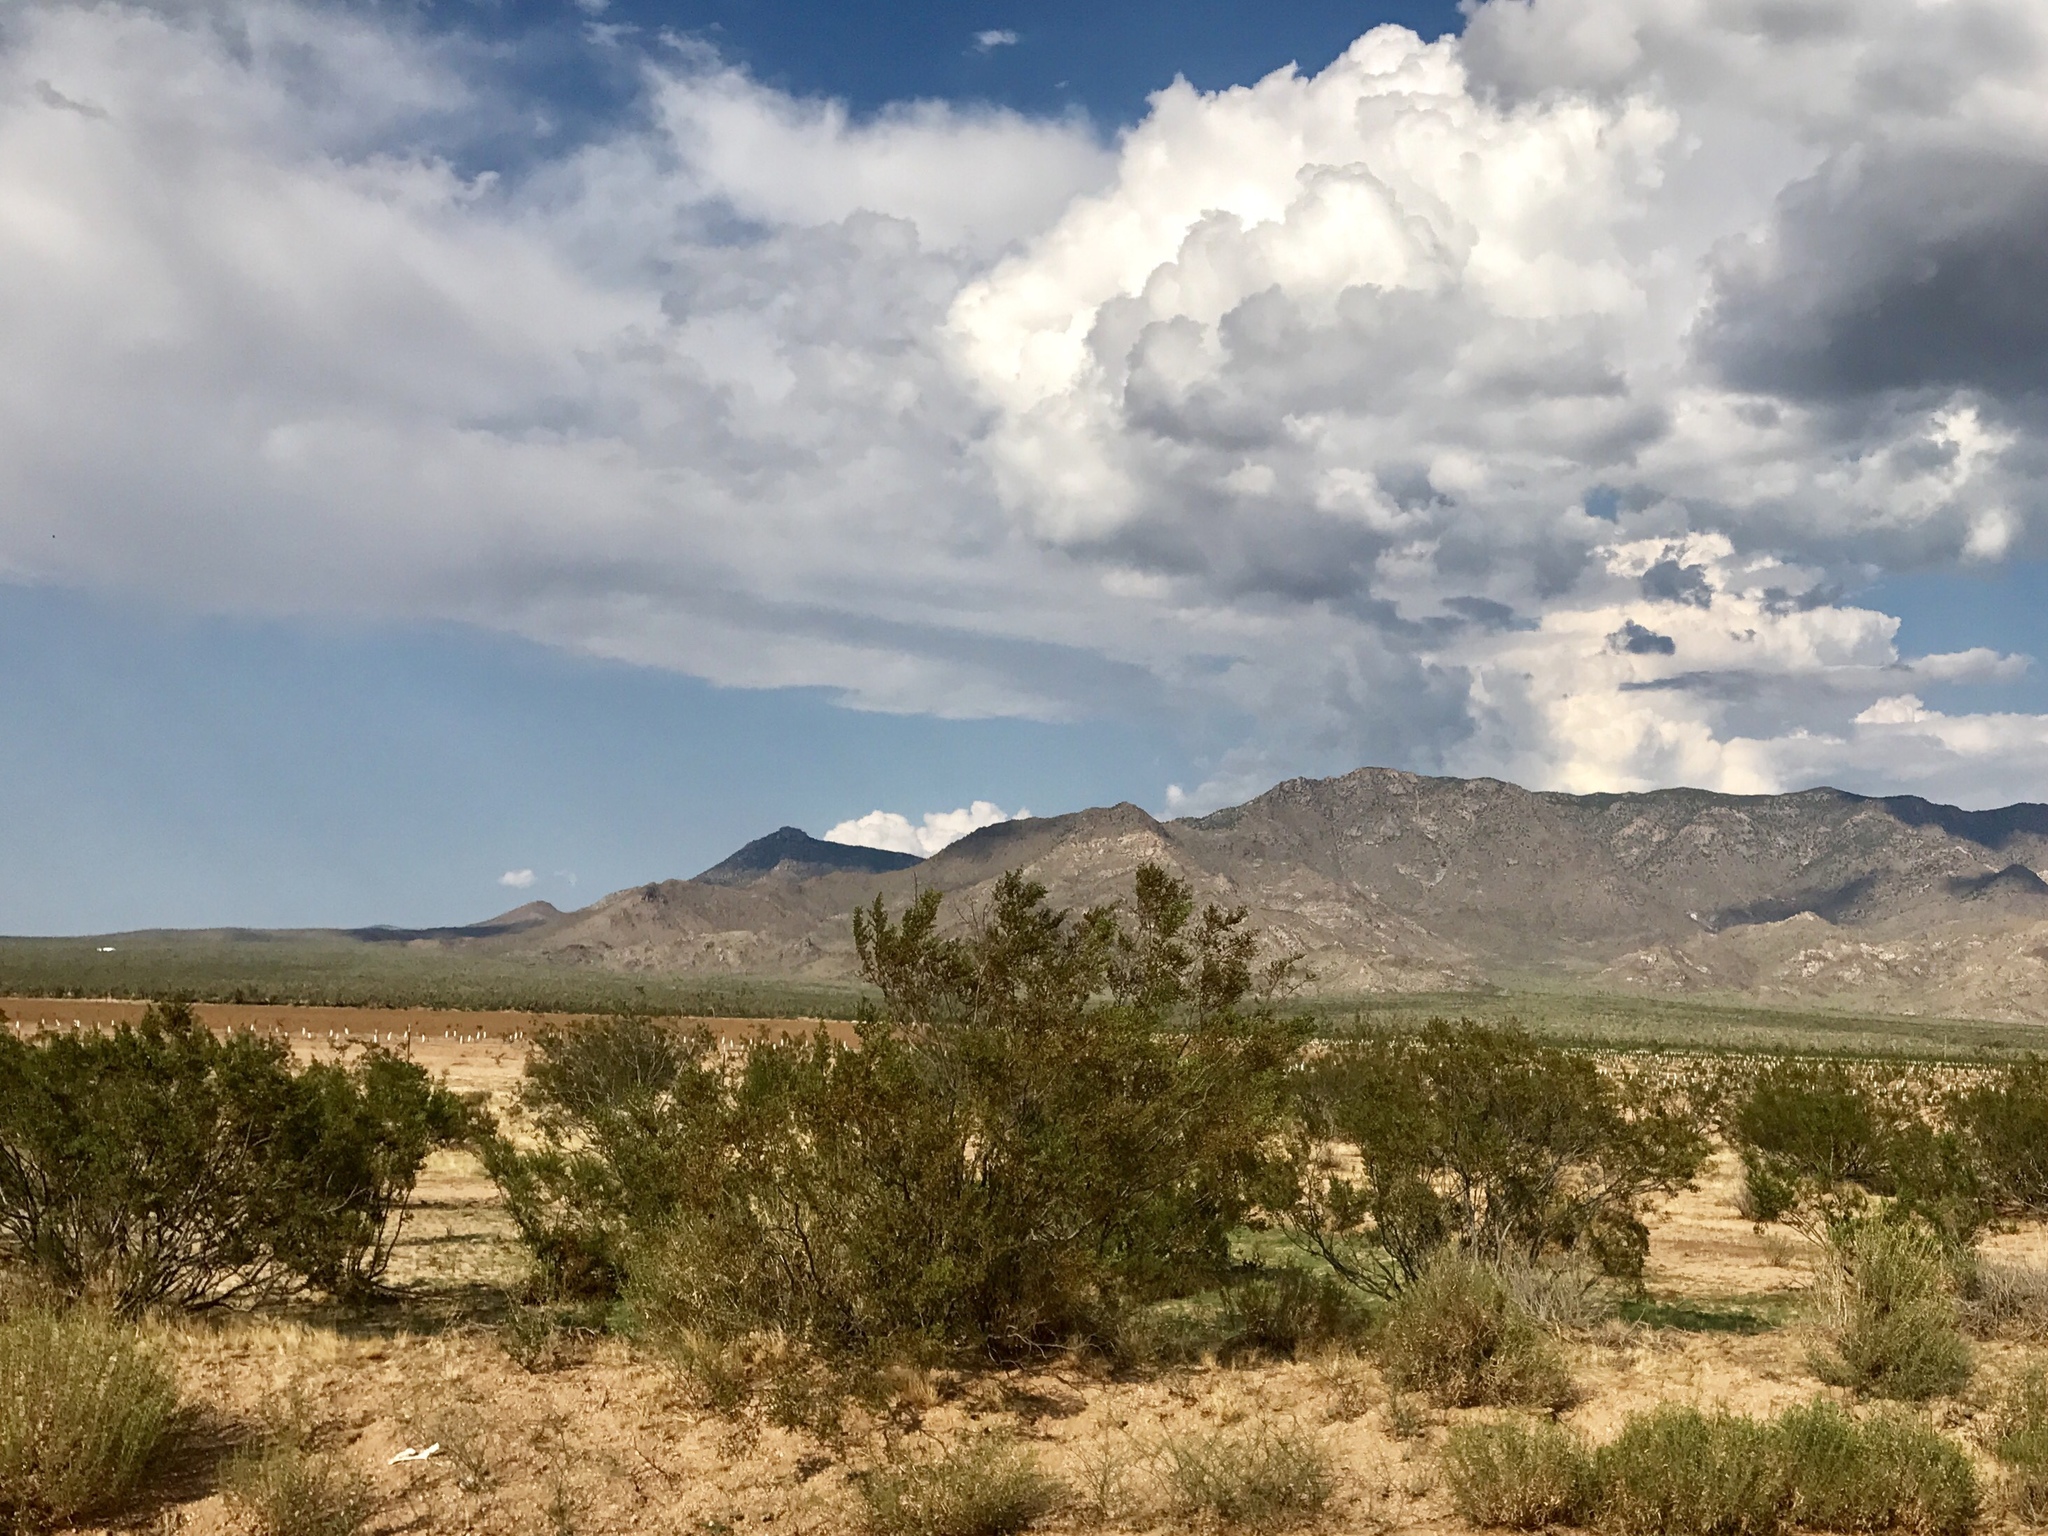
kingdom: Plantae
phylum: Tracheophyta
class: Magnoliopsida
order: Zygophyllales
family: Zygophyllaceae
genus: Larrea
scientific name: Larrea tridentata
